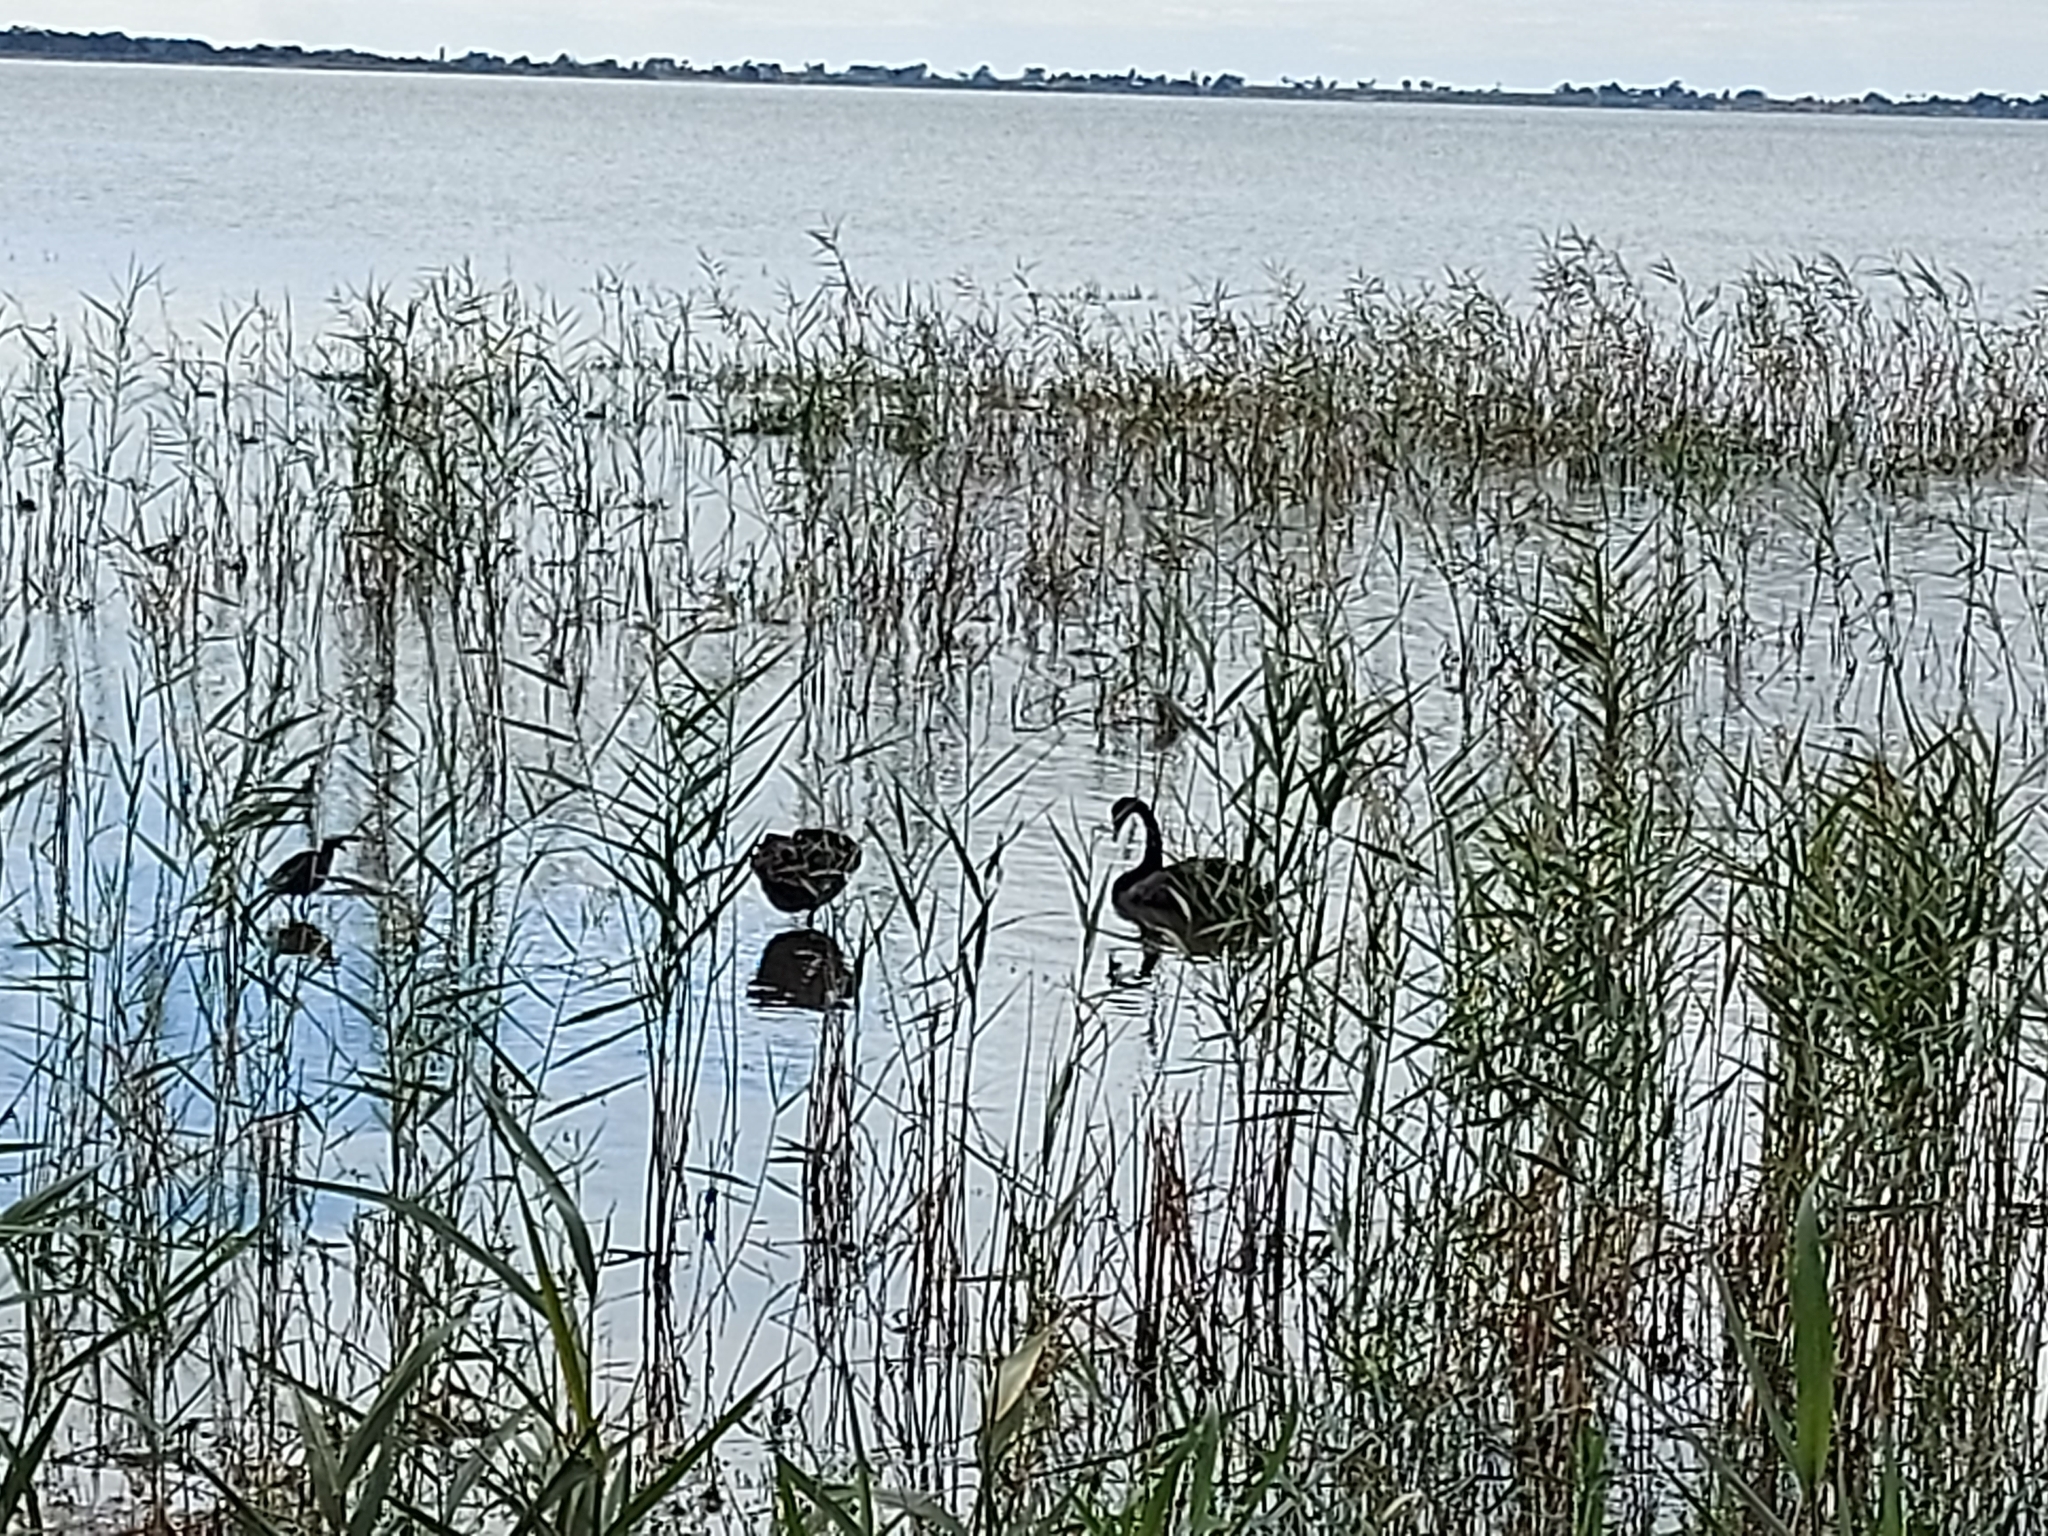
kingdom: Animalia
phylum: Chordata
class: Aves
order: Anseriformes
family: Anatidae
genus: Cygnus
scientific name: Cygnus atratus
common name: Black swan
